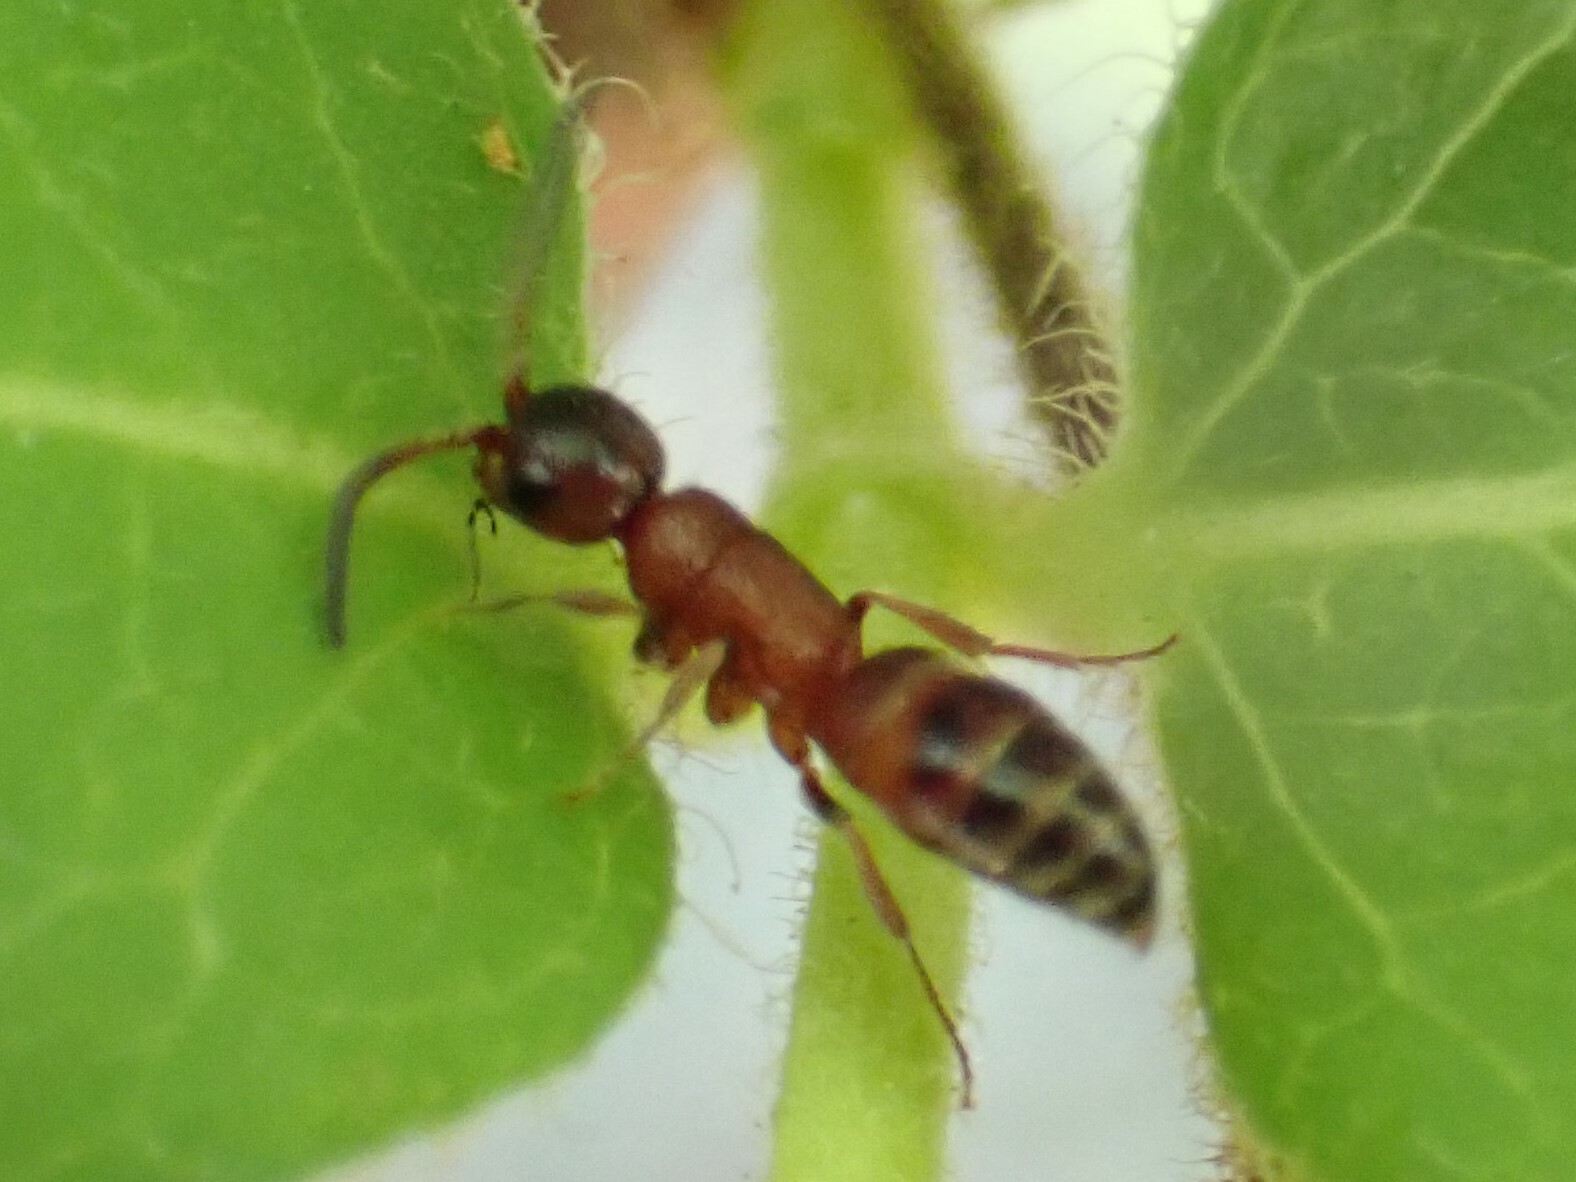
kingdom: Animalia
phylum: Arthropoda
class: Insecta
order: Hymenoptera
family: Mutillidae
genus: Myrmosa
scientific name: Myrmosa unicolor
